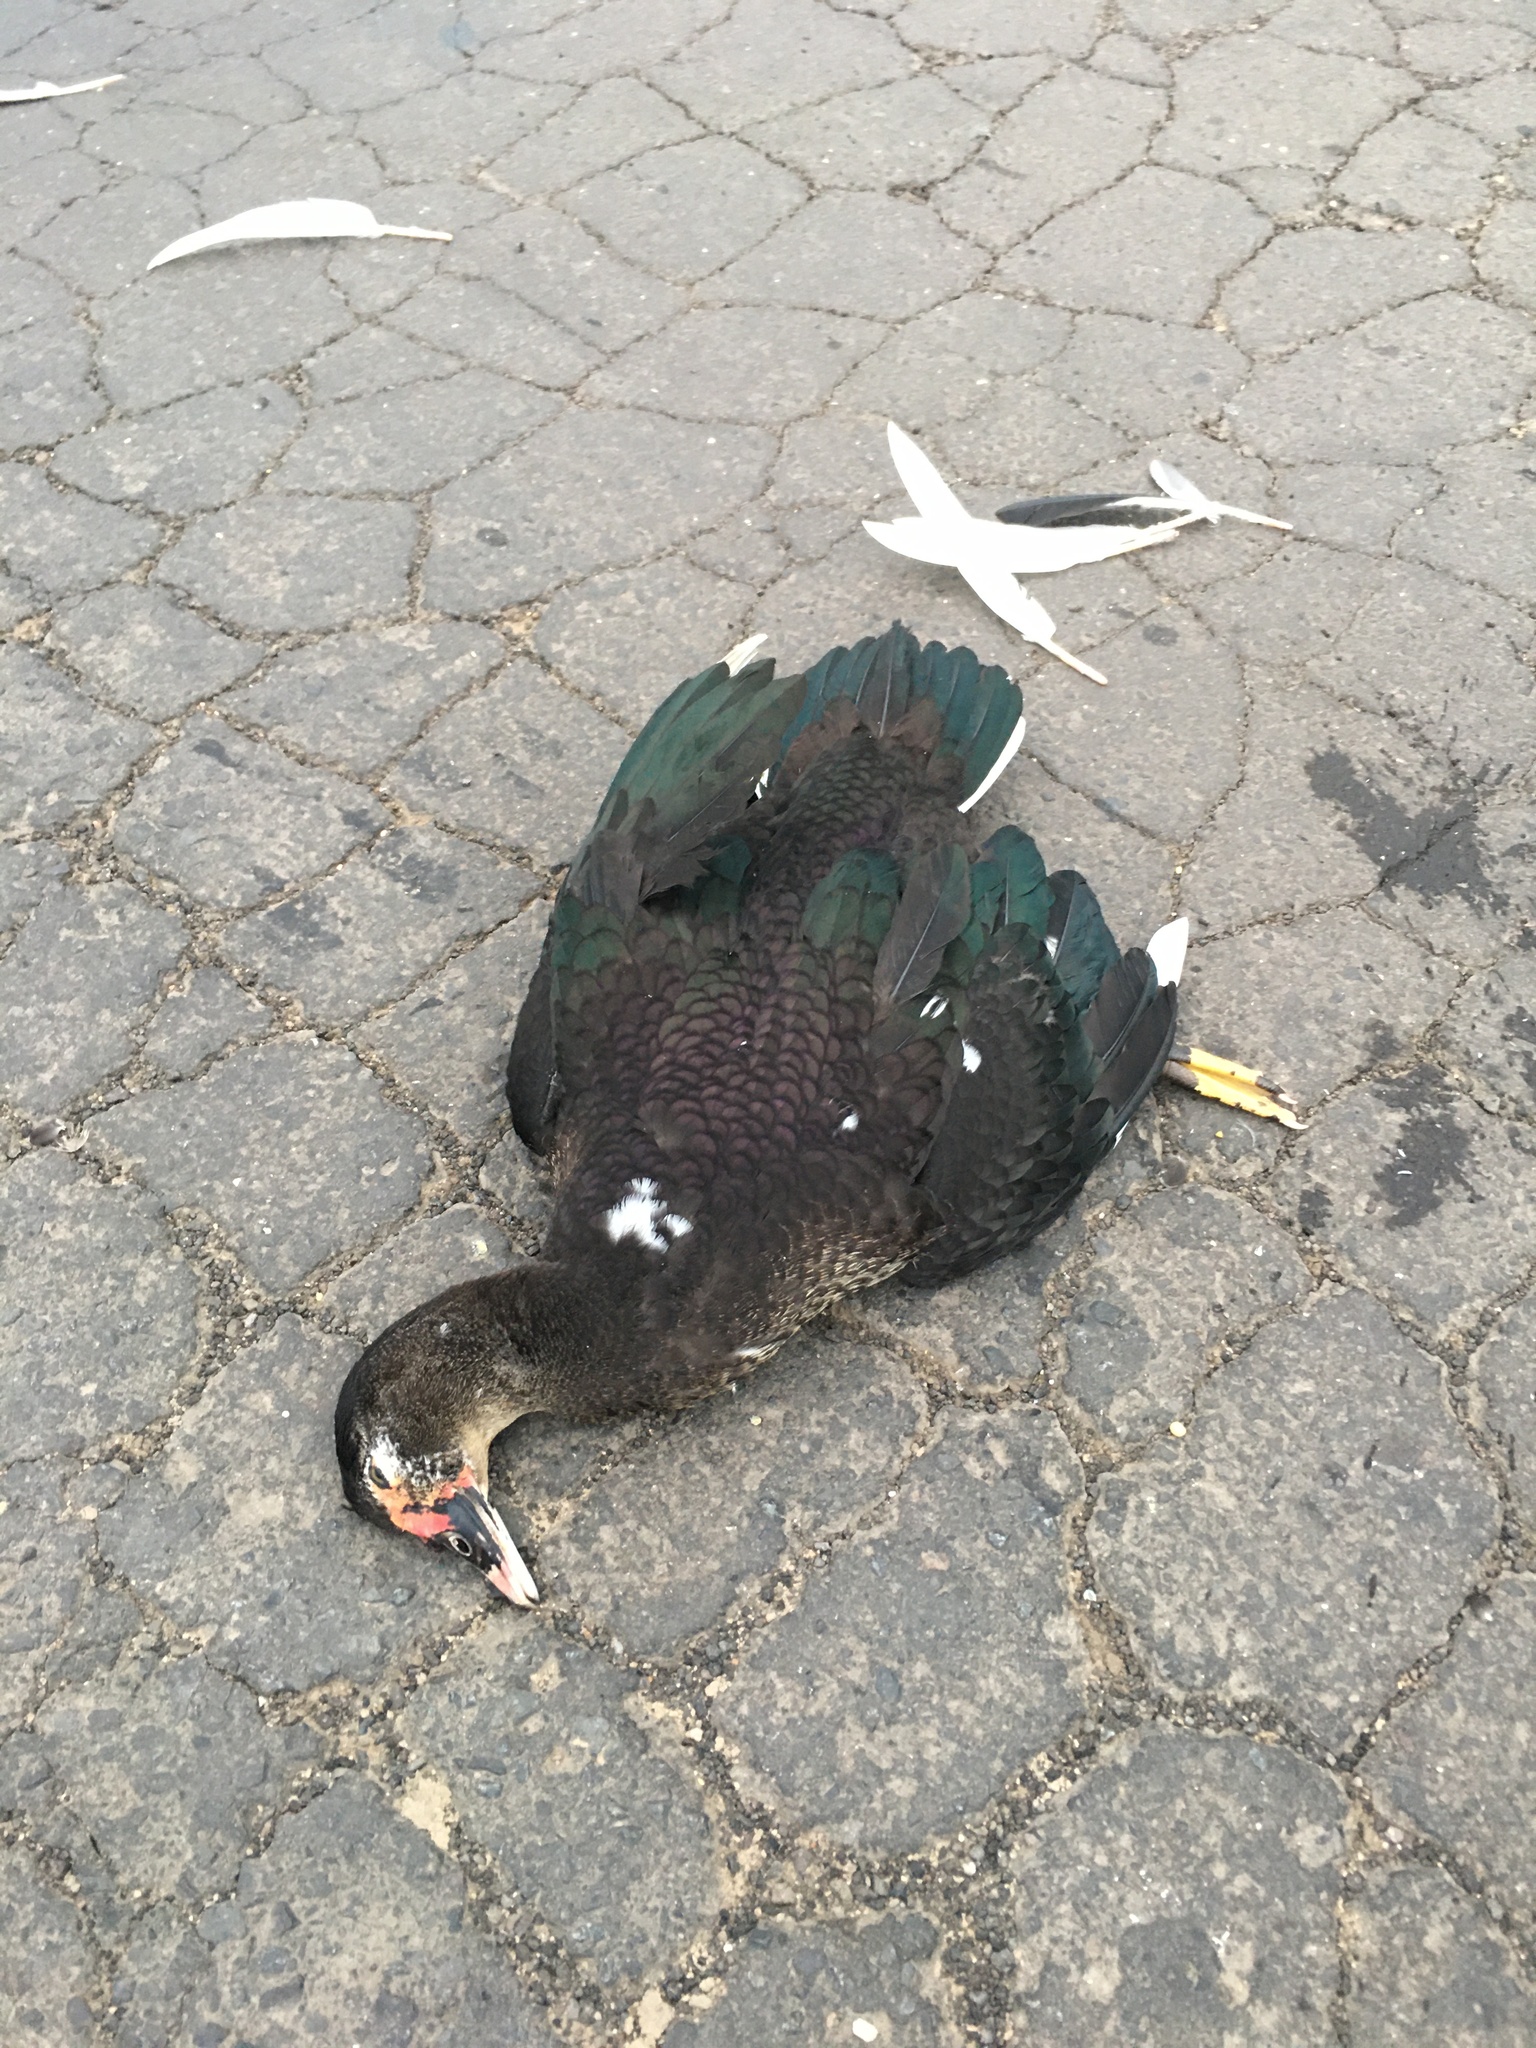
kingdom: Animalia
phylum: Chordata
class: Aves
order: Anseriformes
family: Anatidae
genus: Cairina
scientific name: Cairina moschata
